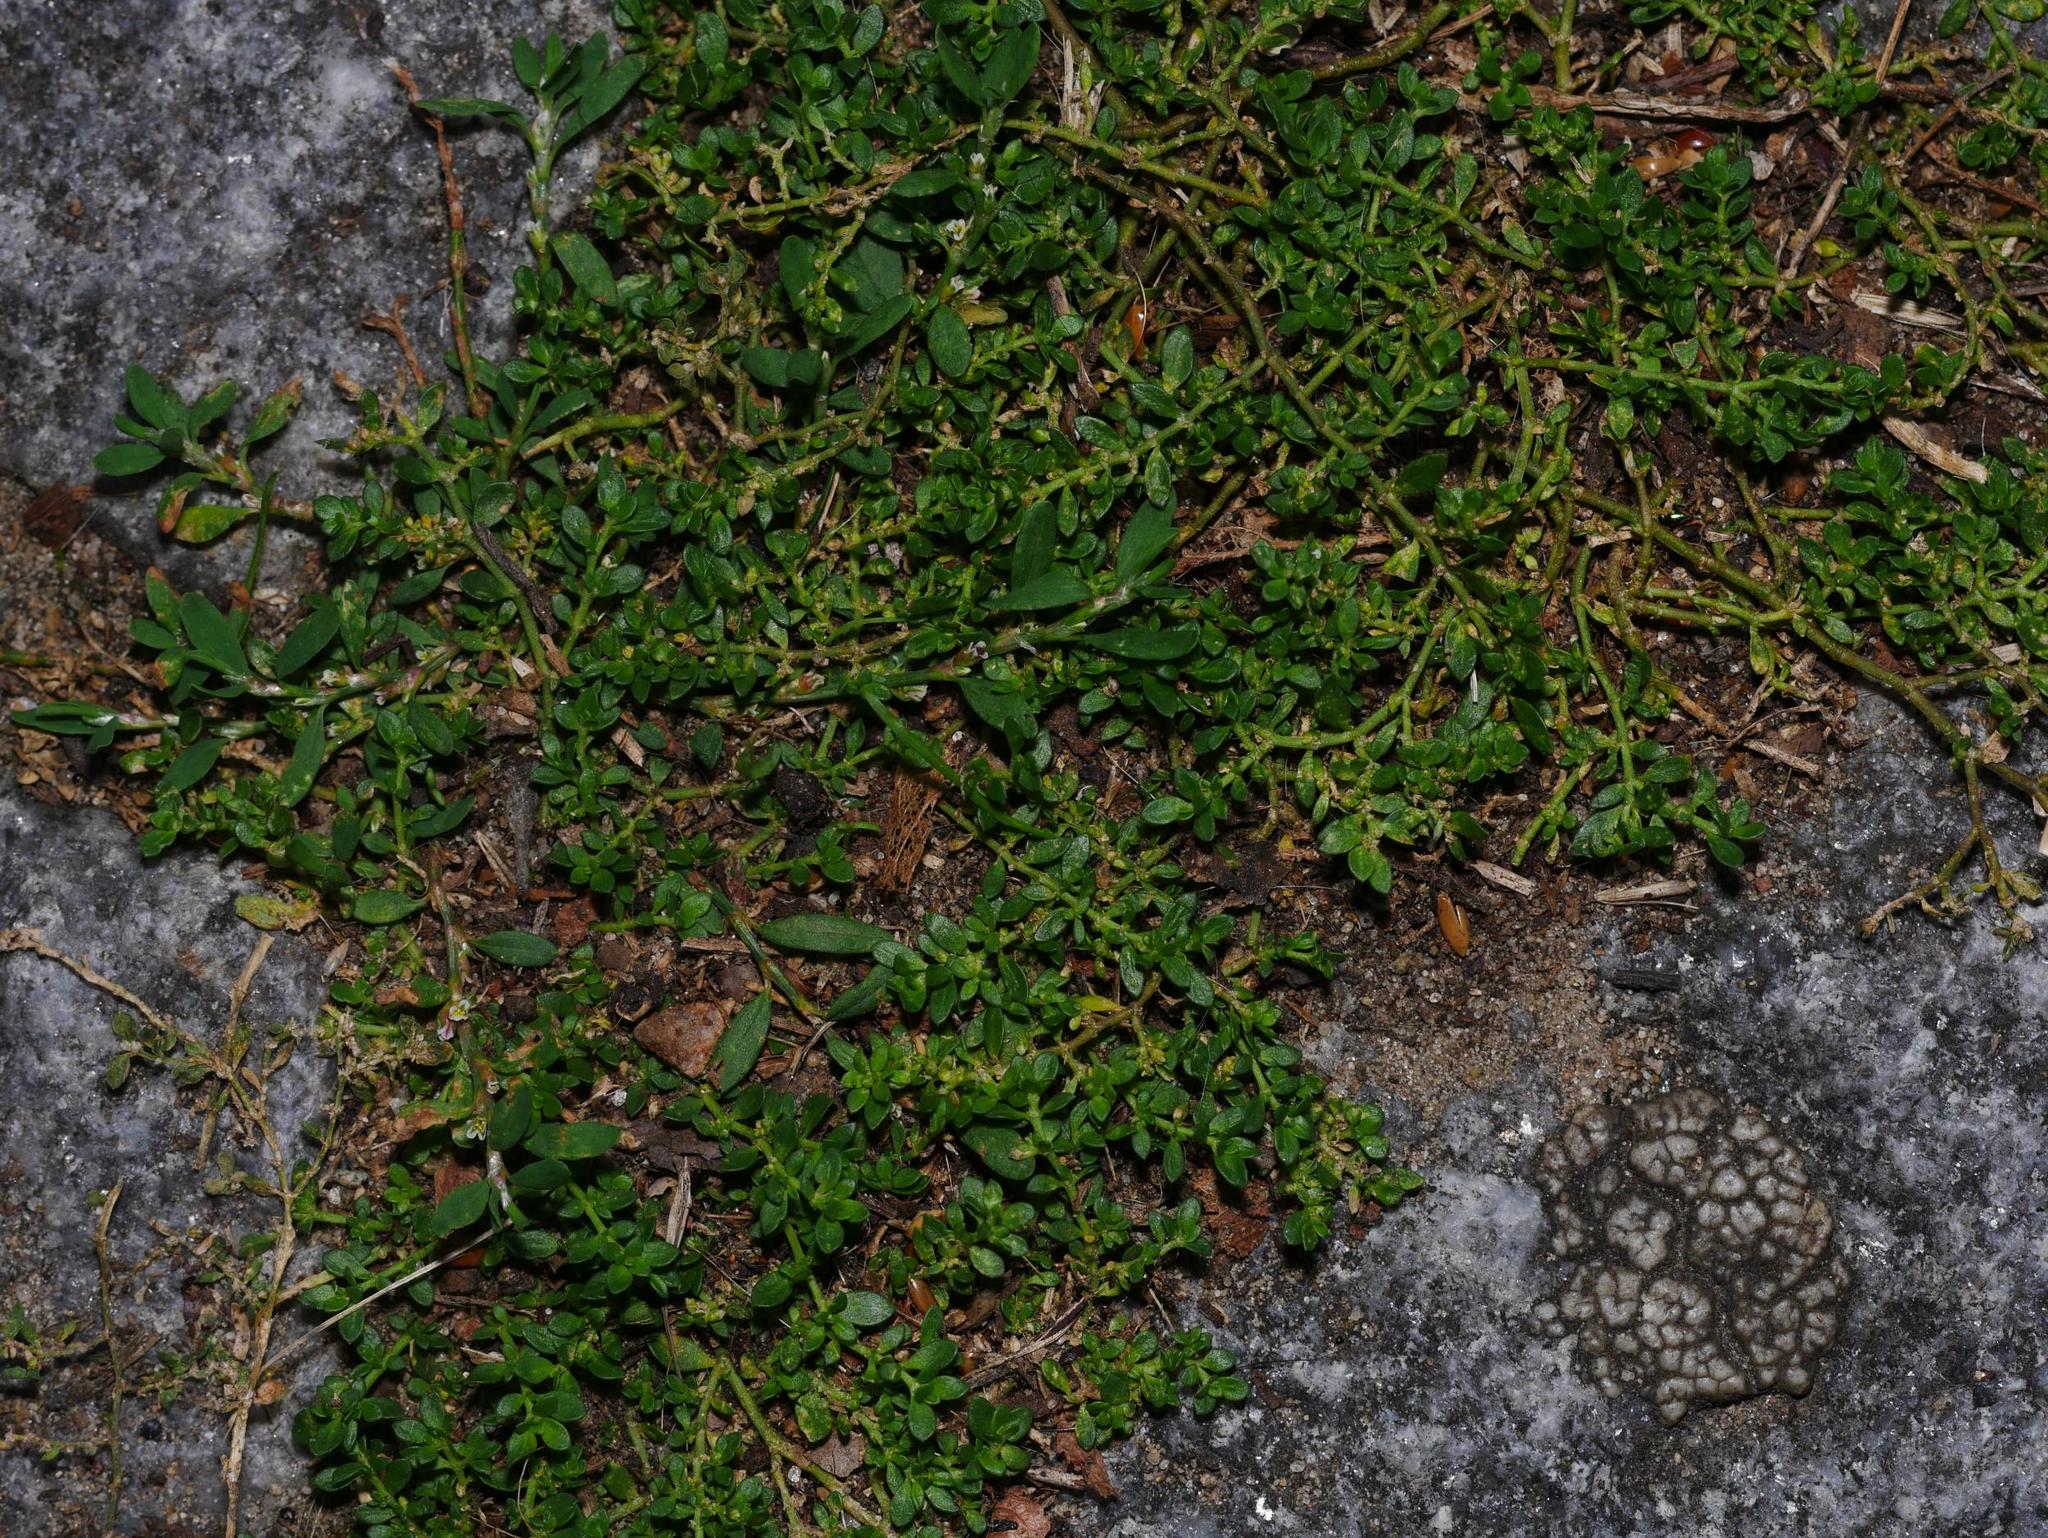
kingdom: Plantae
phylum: Tracheophyta
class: Magnoliopsida
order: Caryophyllales
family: Caryophyllaceae
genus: Herniaria
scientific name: Herniaria glabra
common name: Smooth rupturewort
